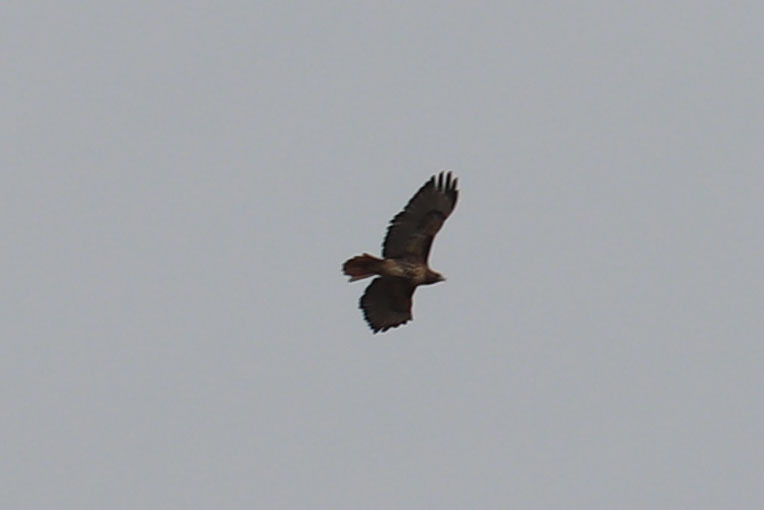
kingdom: Animalia
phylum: Chordata
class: Aves
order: Accipitriformes
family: Accipitridae
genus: Buteo
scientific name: Buteo jamaicensis
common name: Red-tailed hawk
